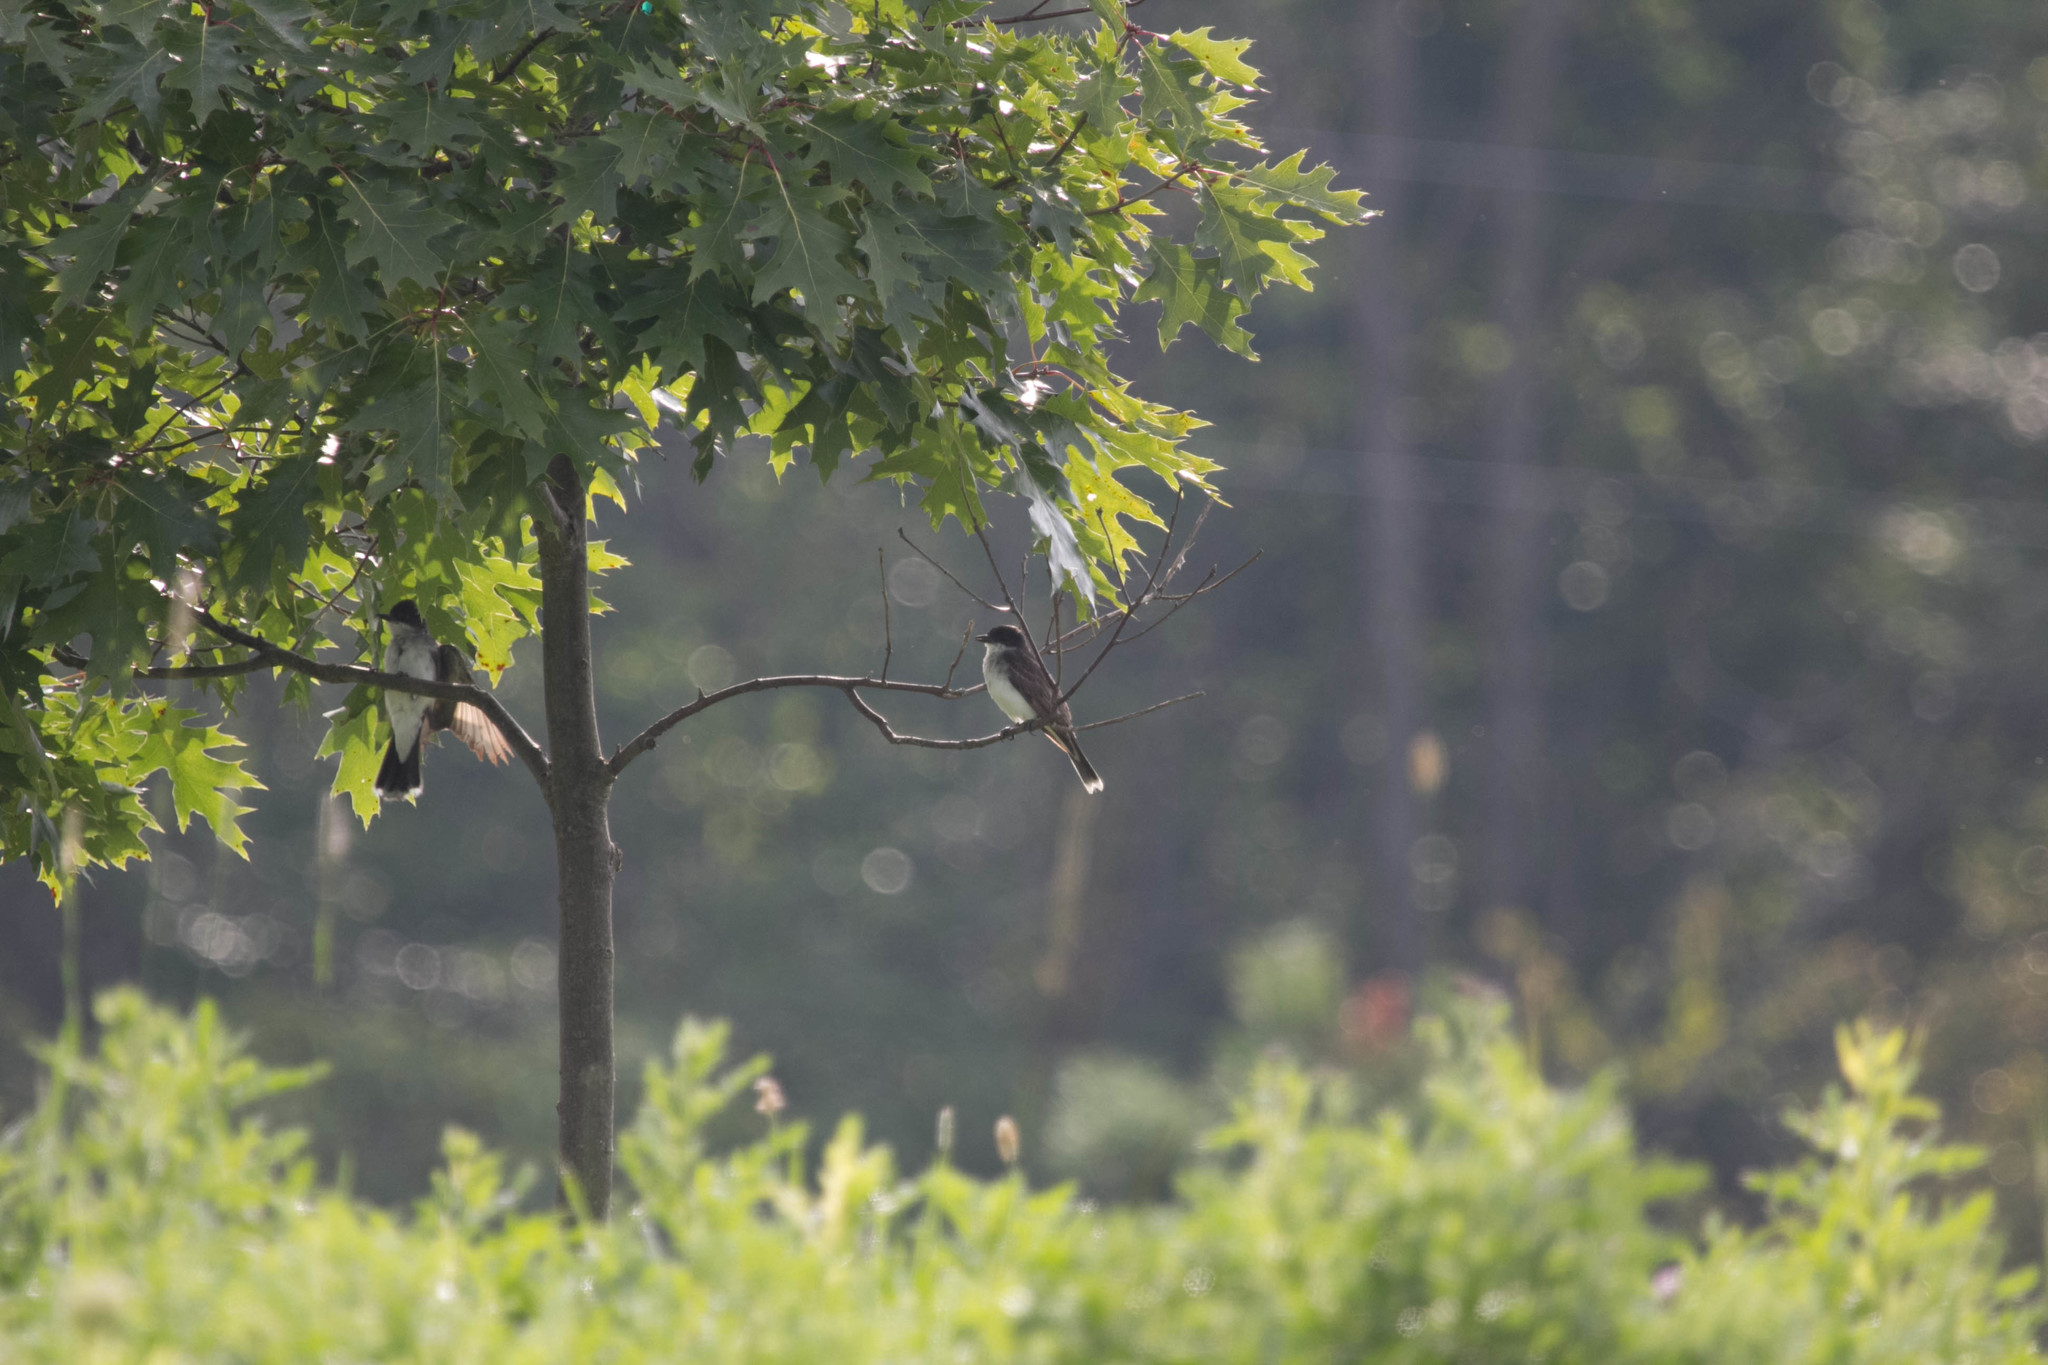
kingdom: Animalia
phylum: Chordata
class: Aves
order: Passeriformes
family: Tyrannidae
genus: Tyrannus
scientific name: Tyrannus tyrannus
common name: Eastern kingbird
